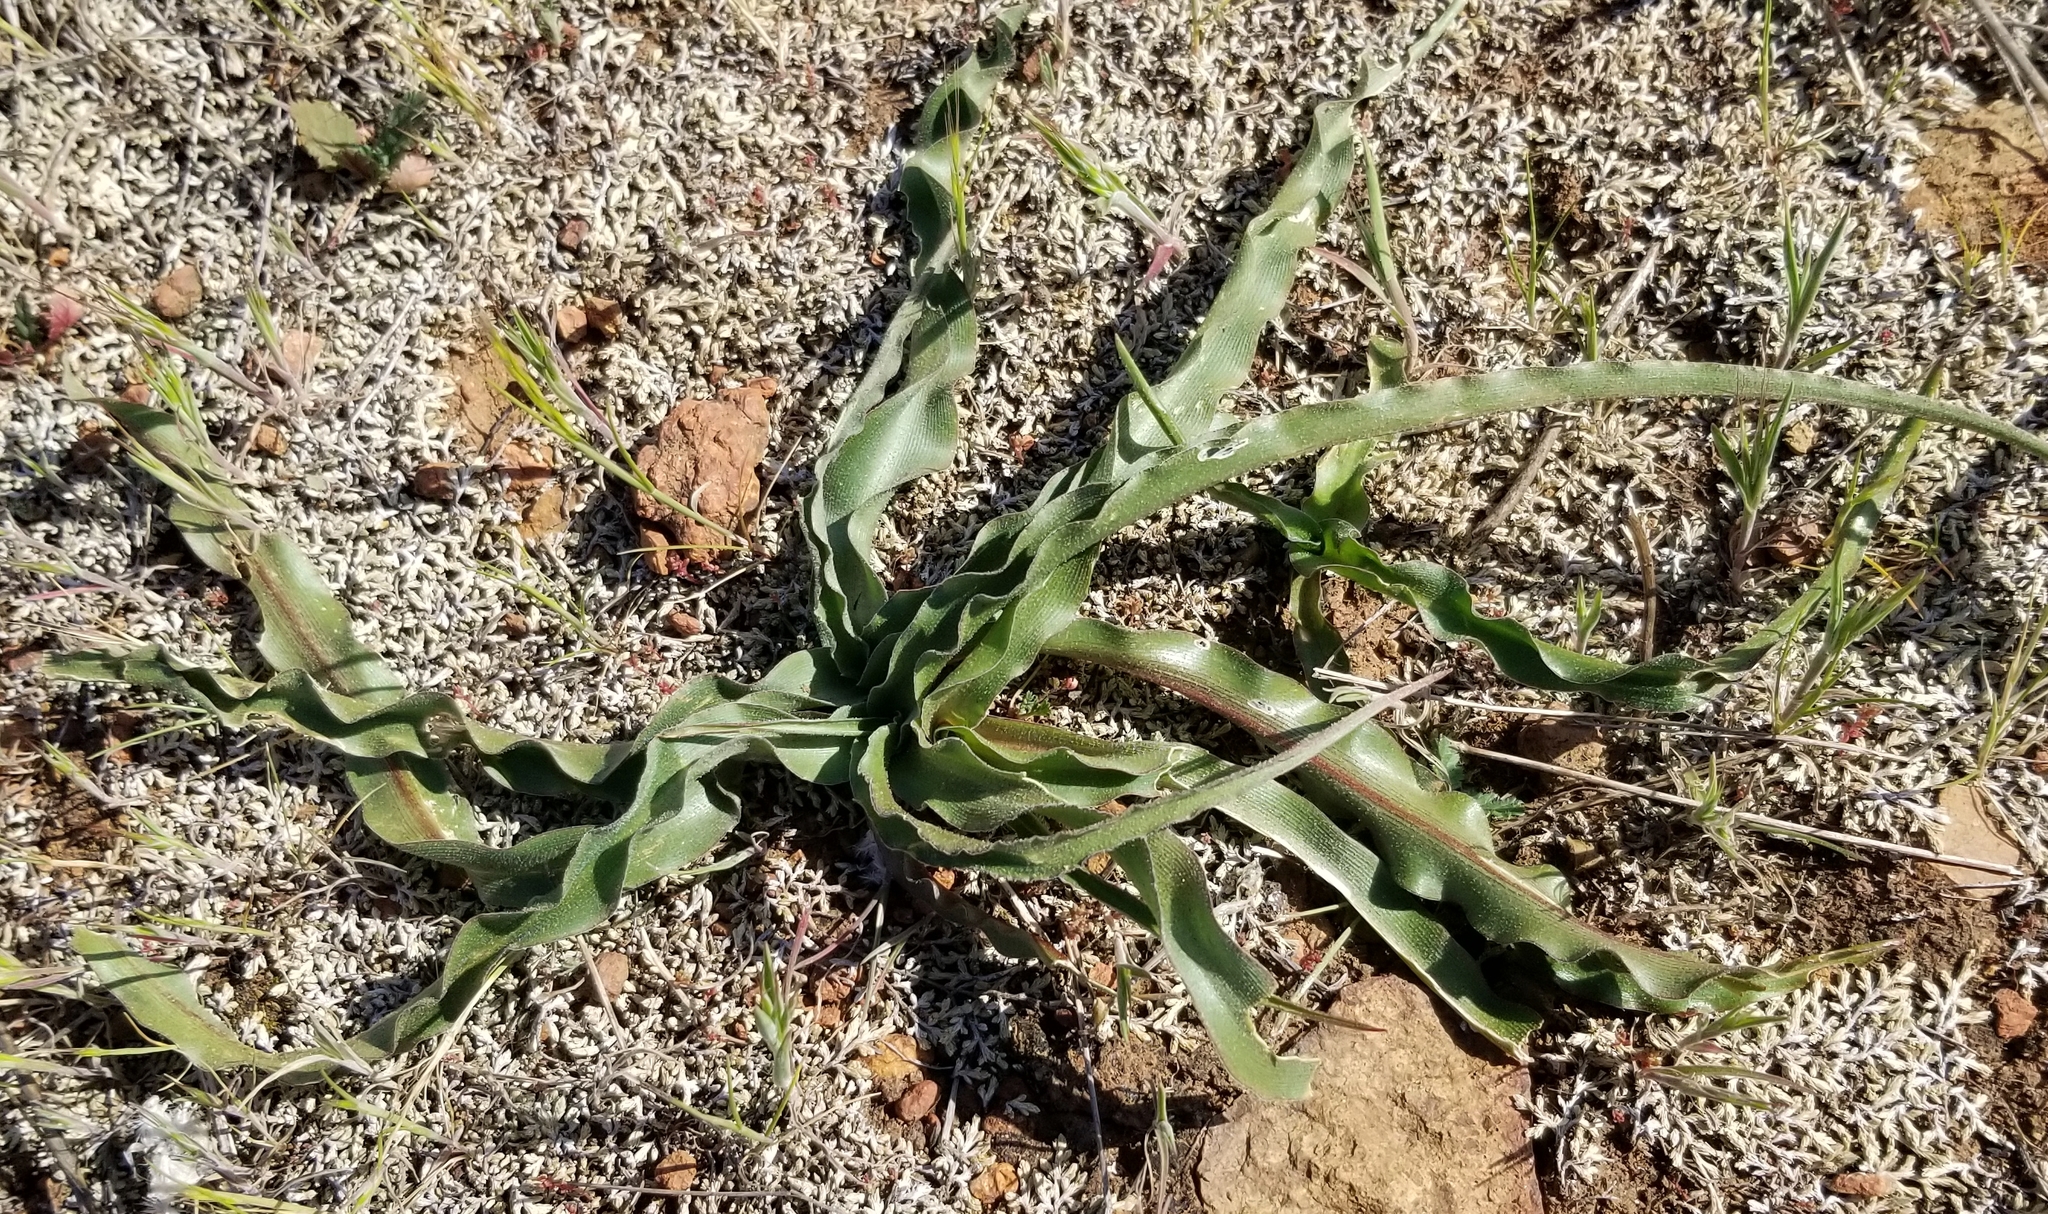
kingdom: Plantae
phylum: Tracheophyta
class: Liliopsida
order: Asparagales
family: Asparagaceae
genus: Hooveria
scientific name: Hooveria parviflora
